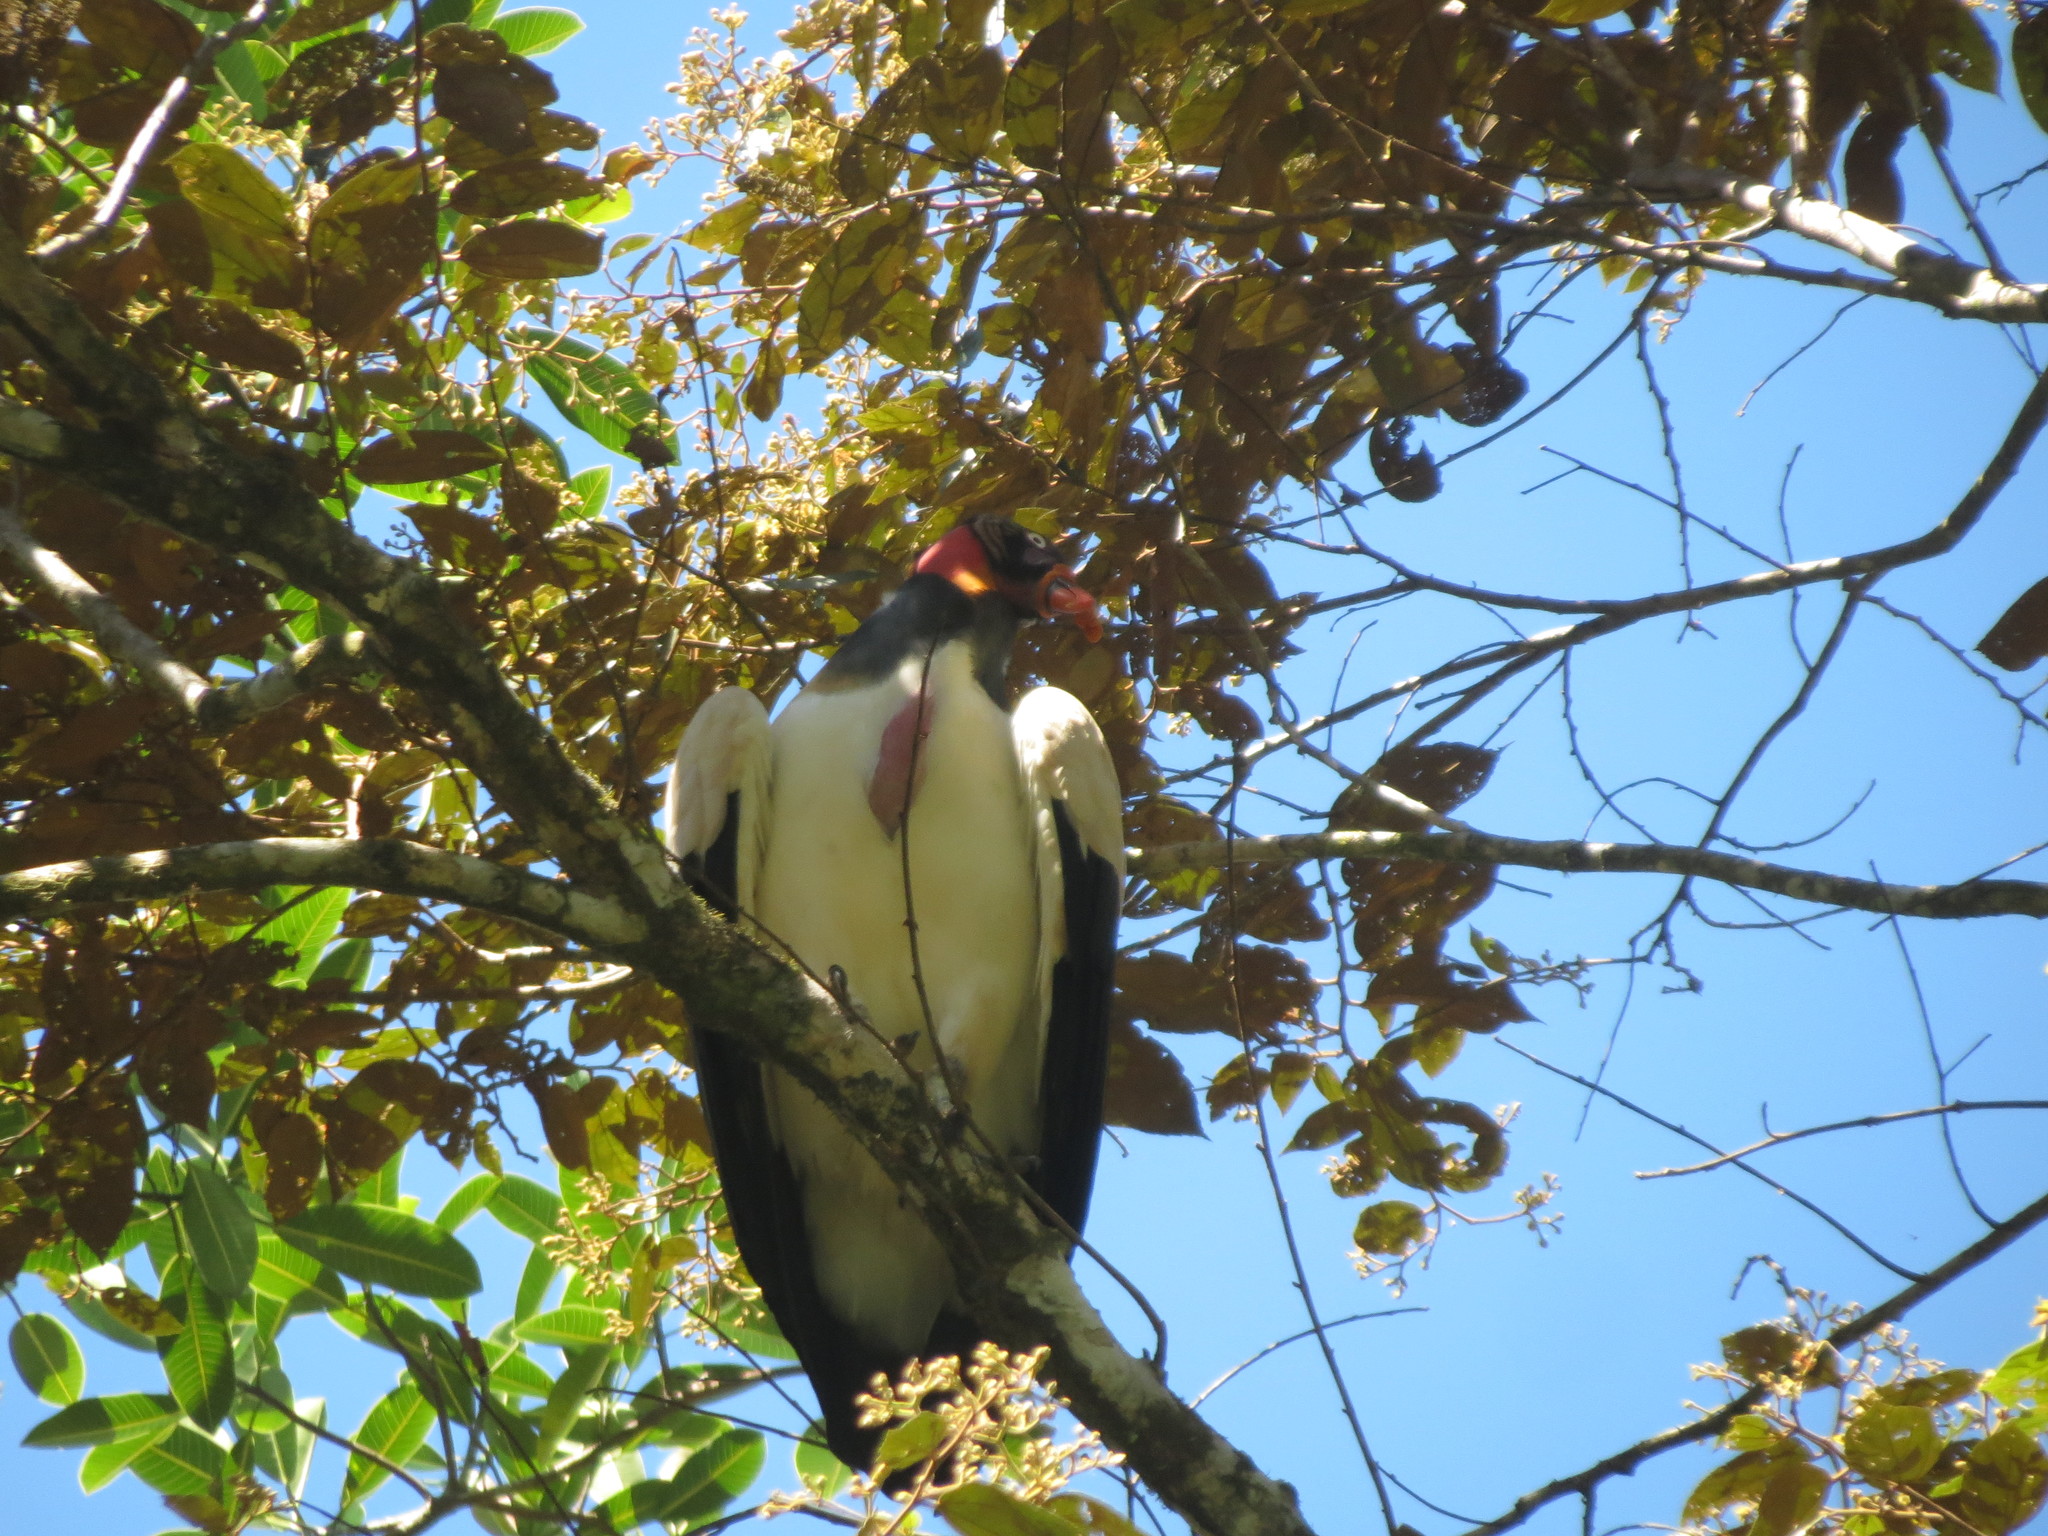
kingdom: Animalia
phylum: Chordata
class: Aves
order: Accipitriformes
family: Cathartidae
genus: Sarcoramphus
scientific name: Sarcoramphus papa
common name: King vulture
